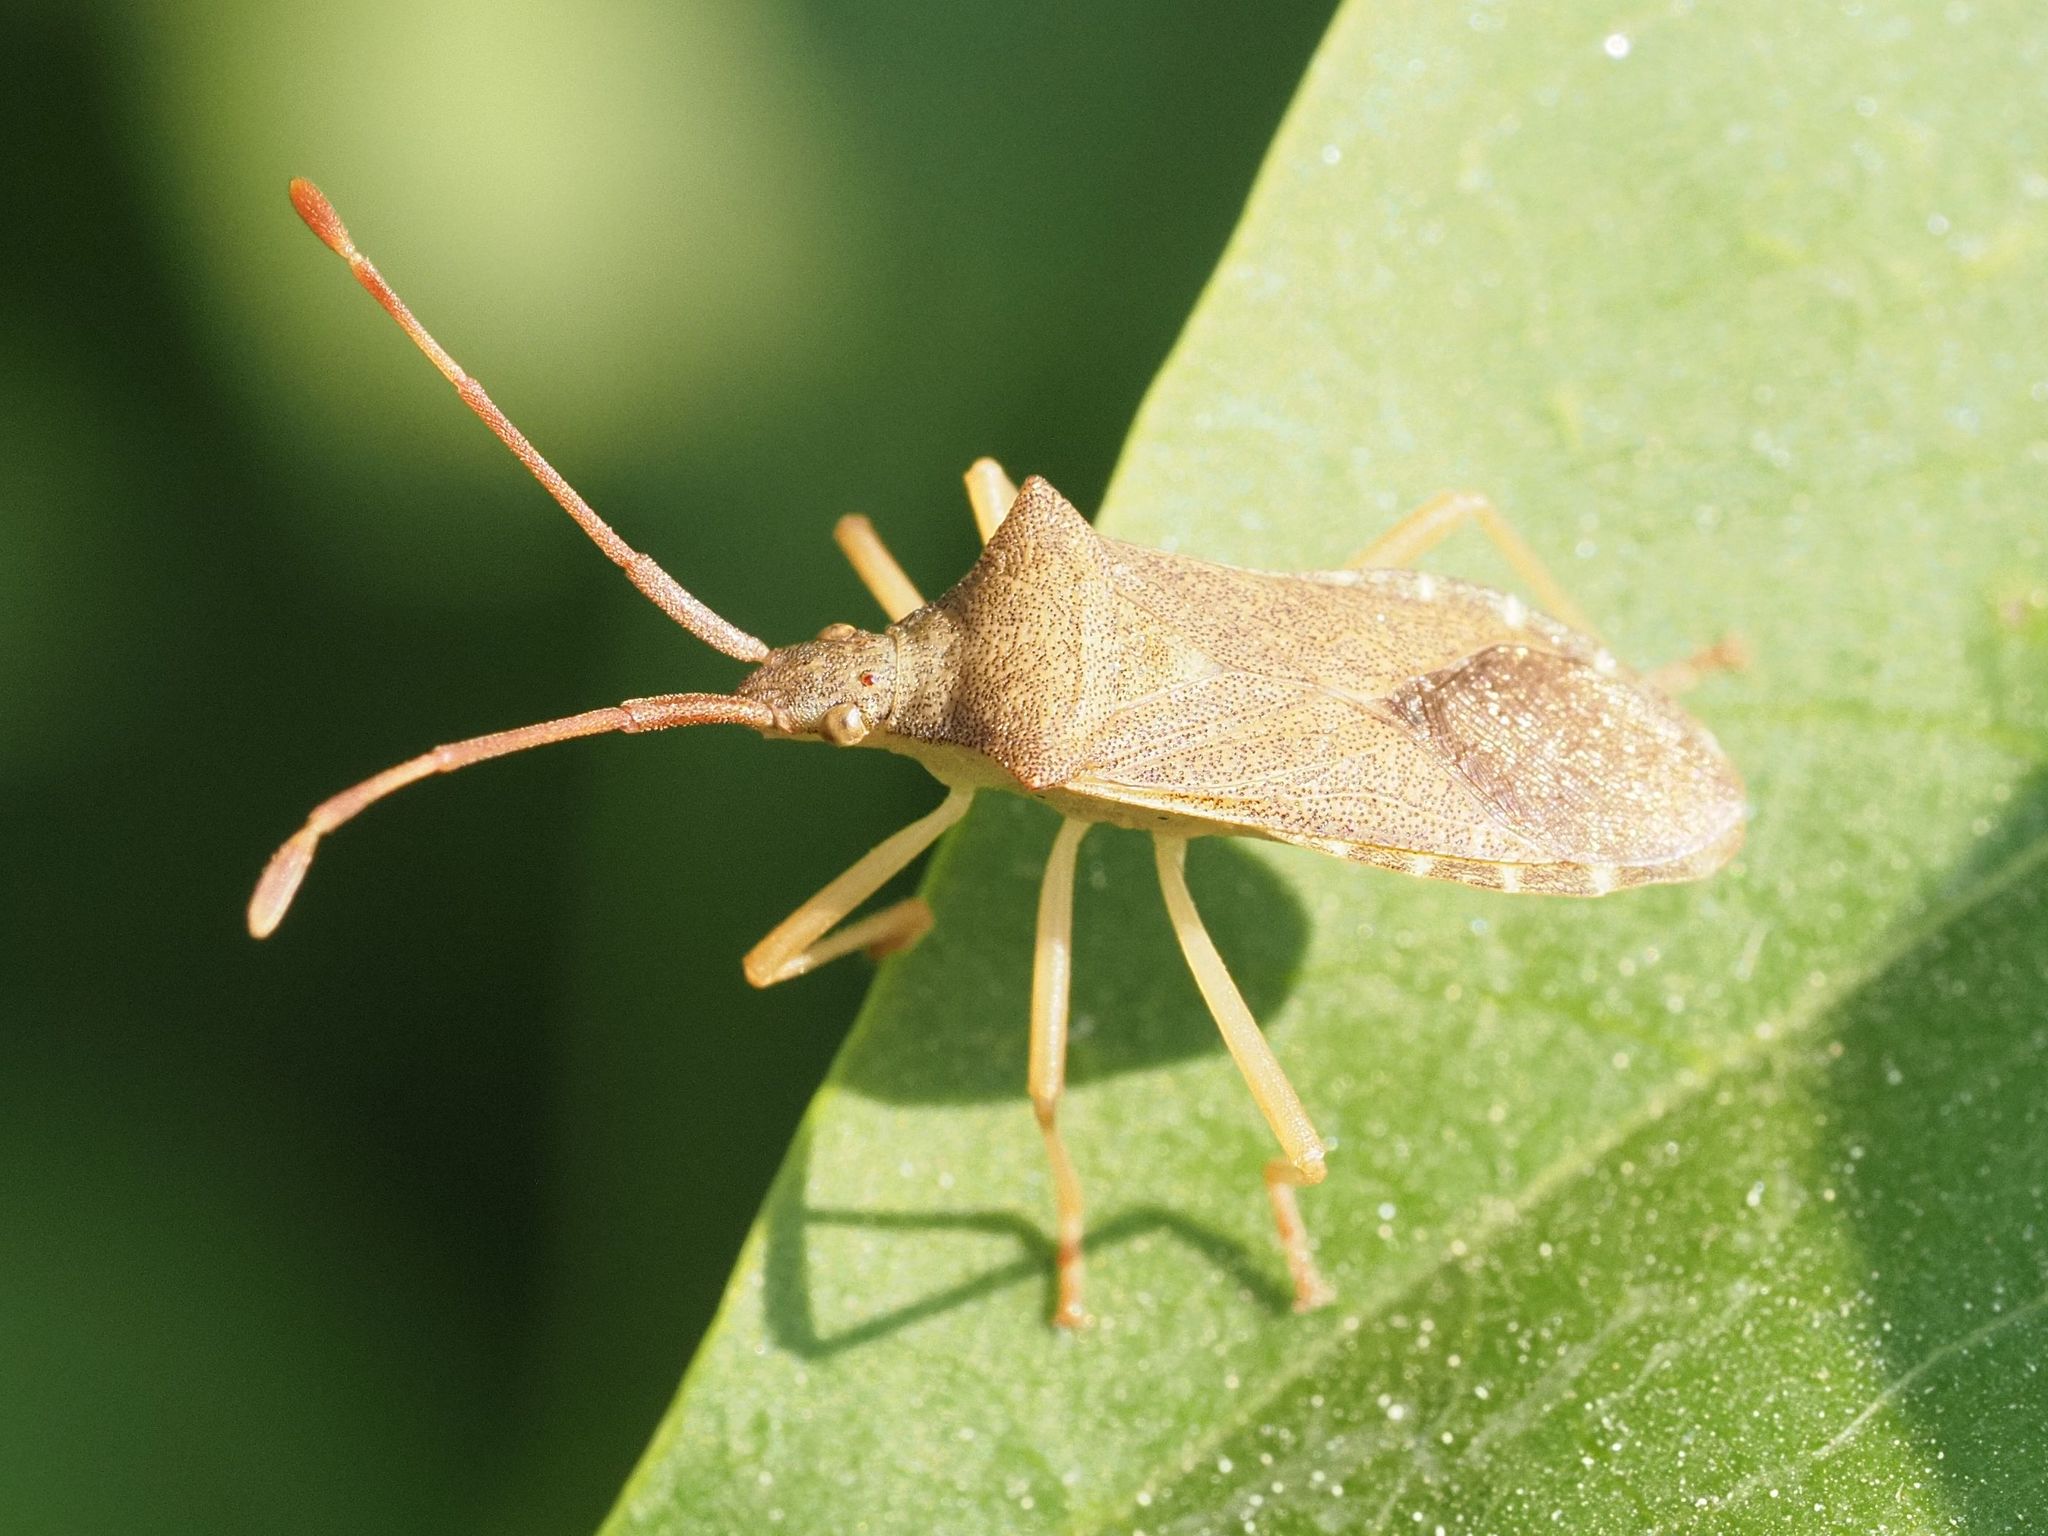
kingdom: Animalia
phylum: Arthropoda
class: Insecta
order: Hemiptera
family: Coreidae
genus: Gonocerus
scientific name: Gonocerus acuteangulatus
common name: Box bug
